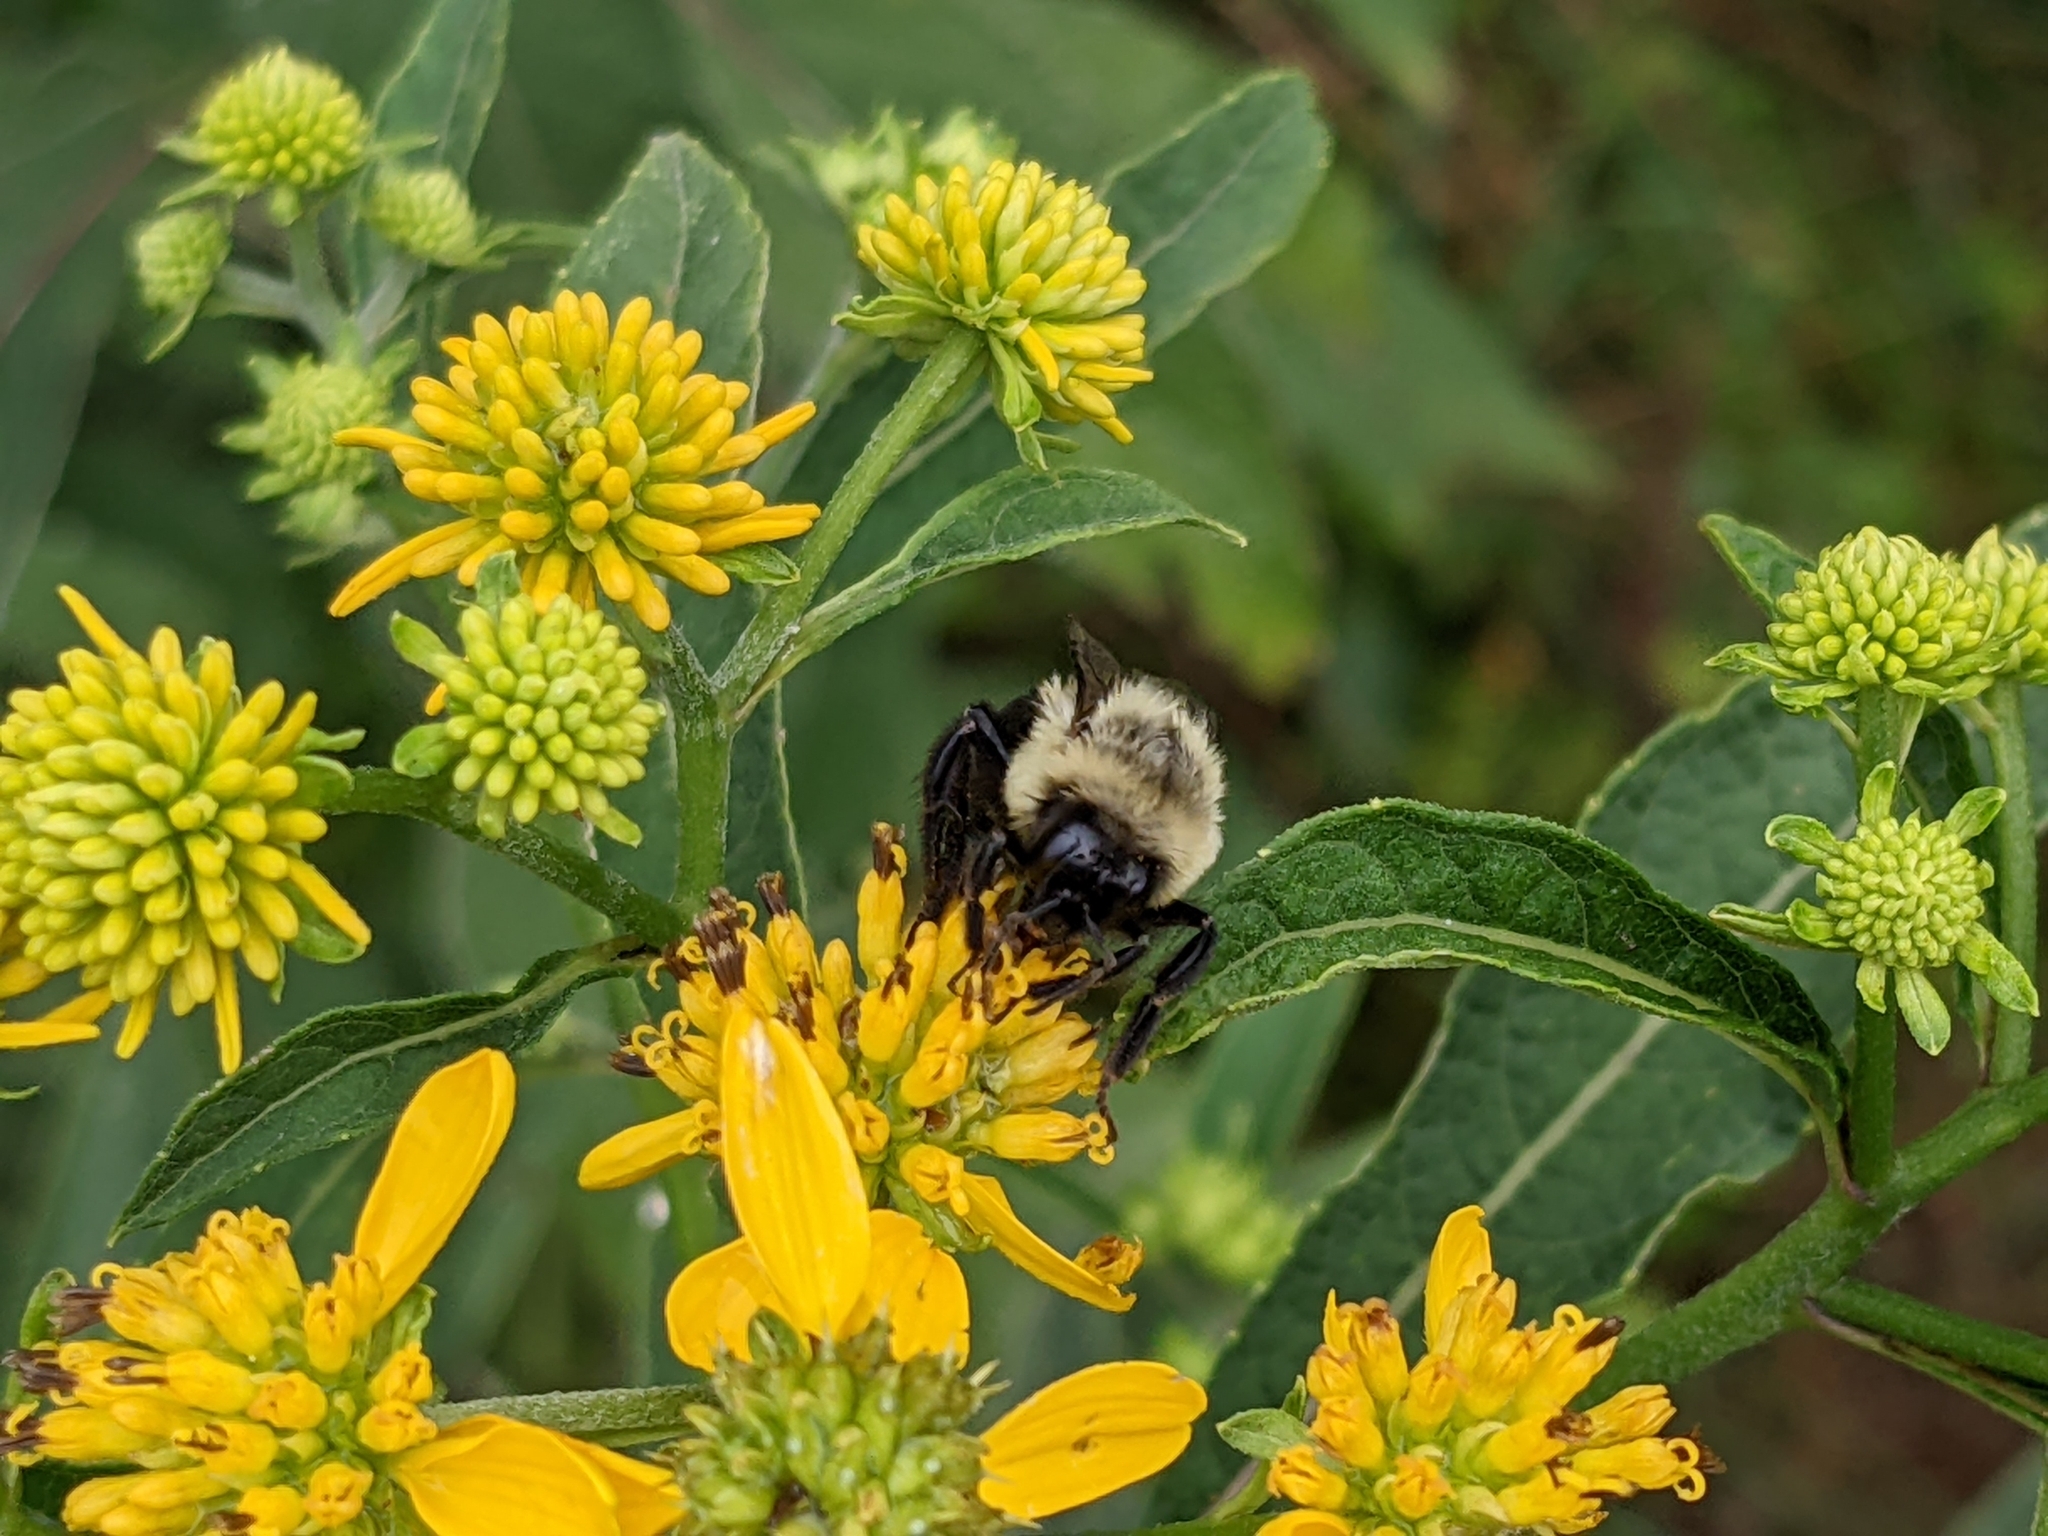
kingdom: Animalia
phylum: Arthropoda
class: Insecta
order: Hymenoptera
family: Apidae
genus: Bombus
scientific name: Bombus impatiens
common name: Common eastern bumble bee
